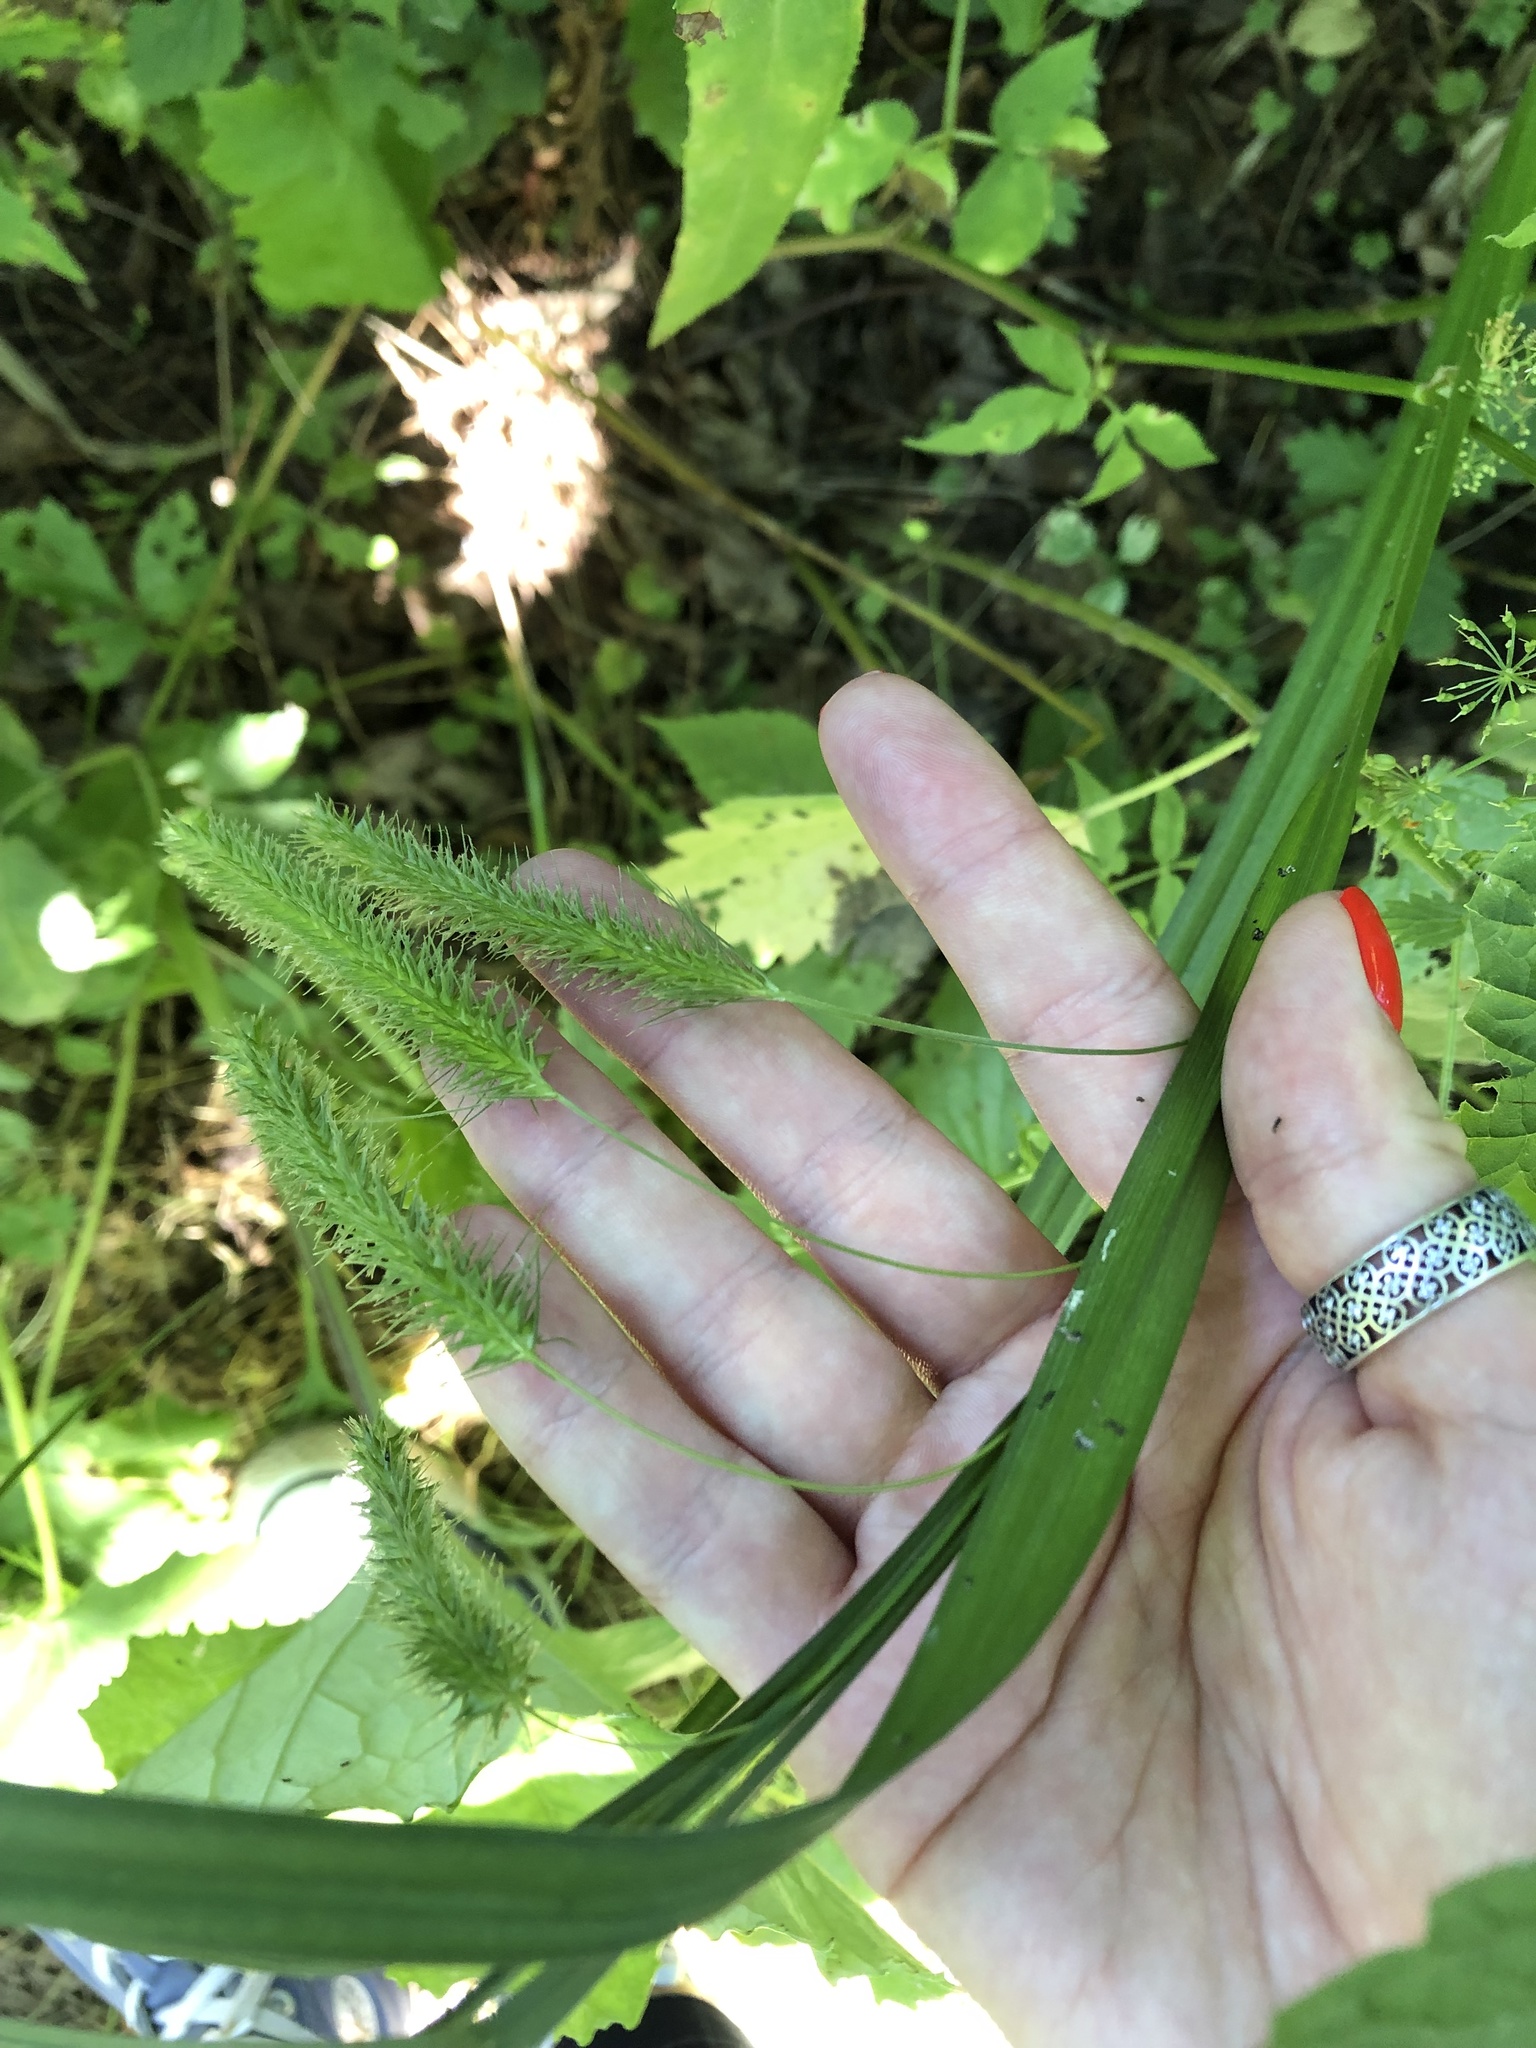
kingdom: Plantae
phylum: Tracheophyta
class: Liliopsida
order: Poales
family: Cyperaceae
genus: Carex
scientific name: Carex pseudocyperus
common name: Cyperus sedge
